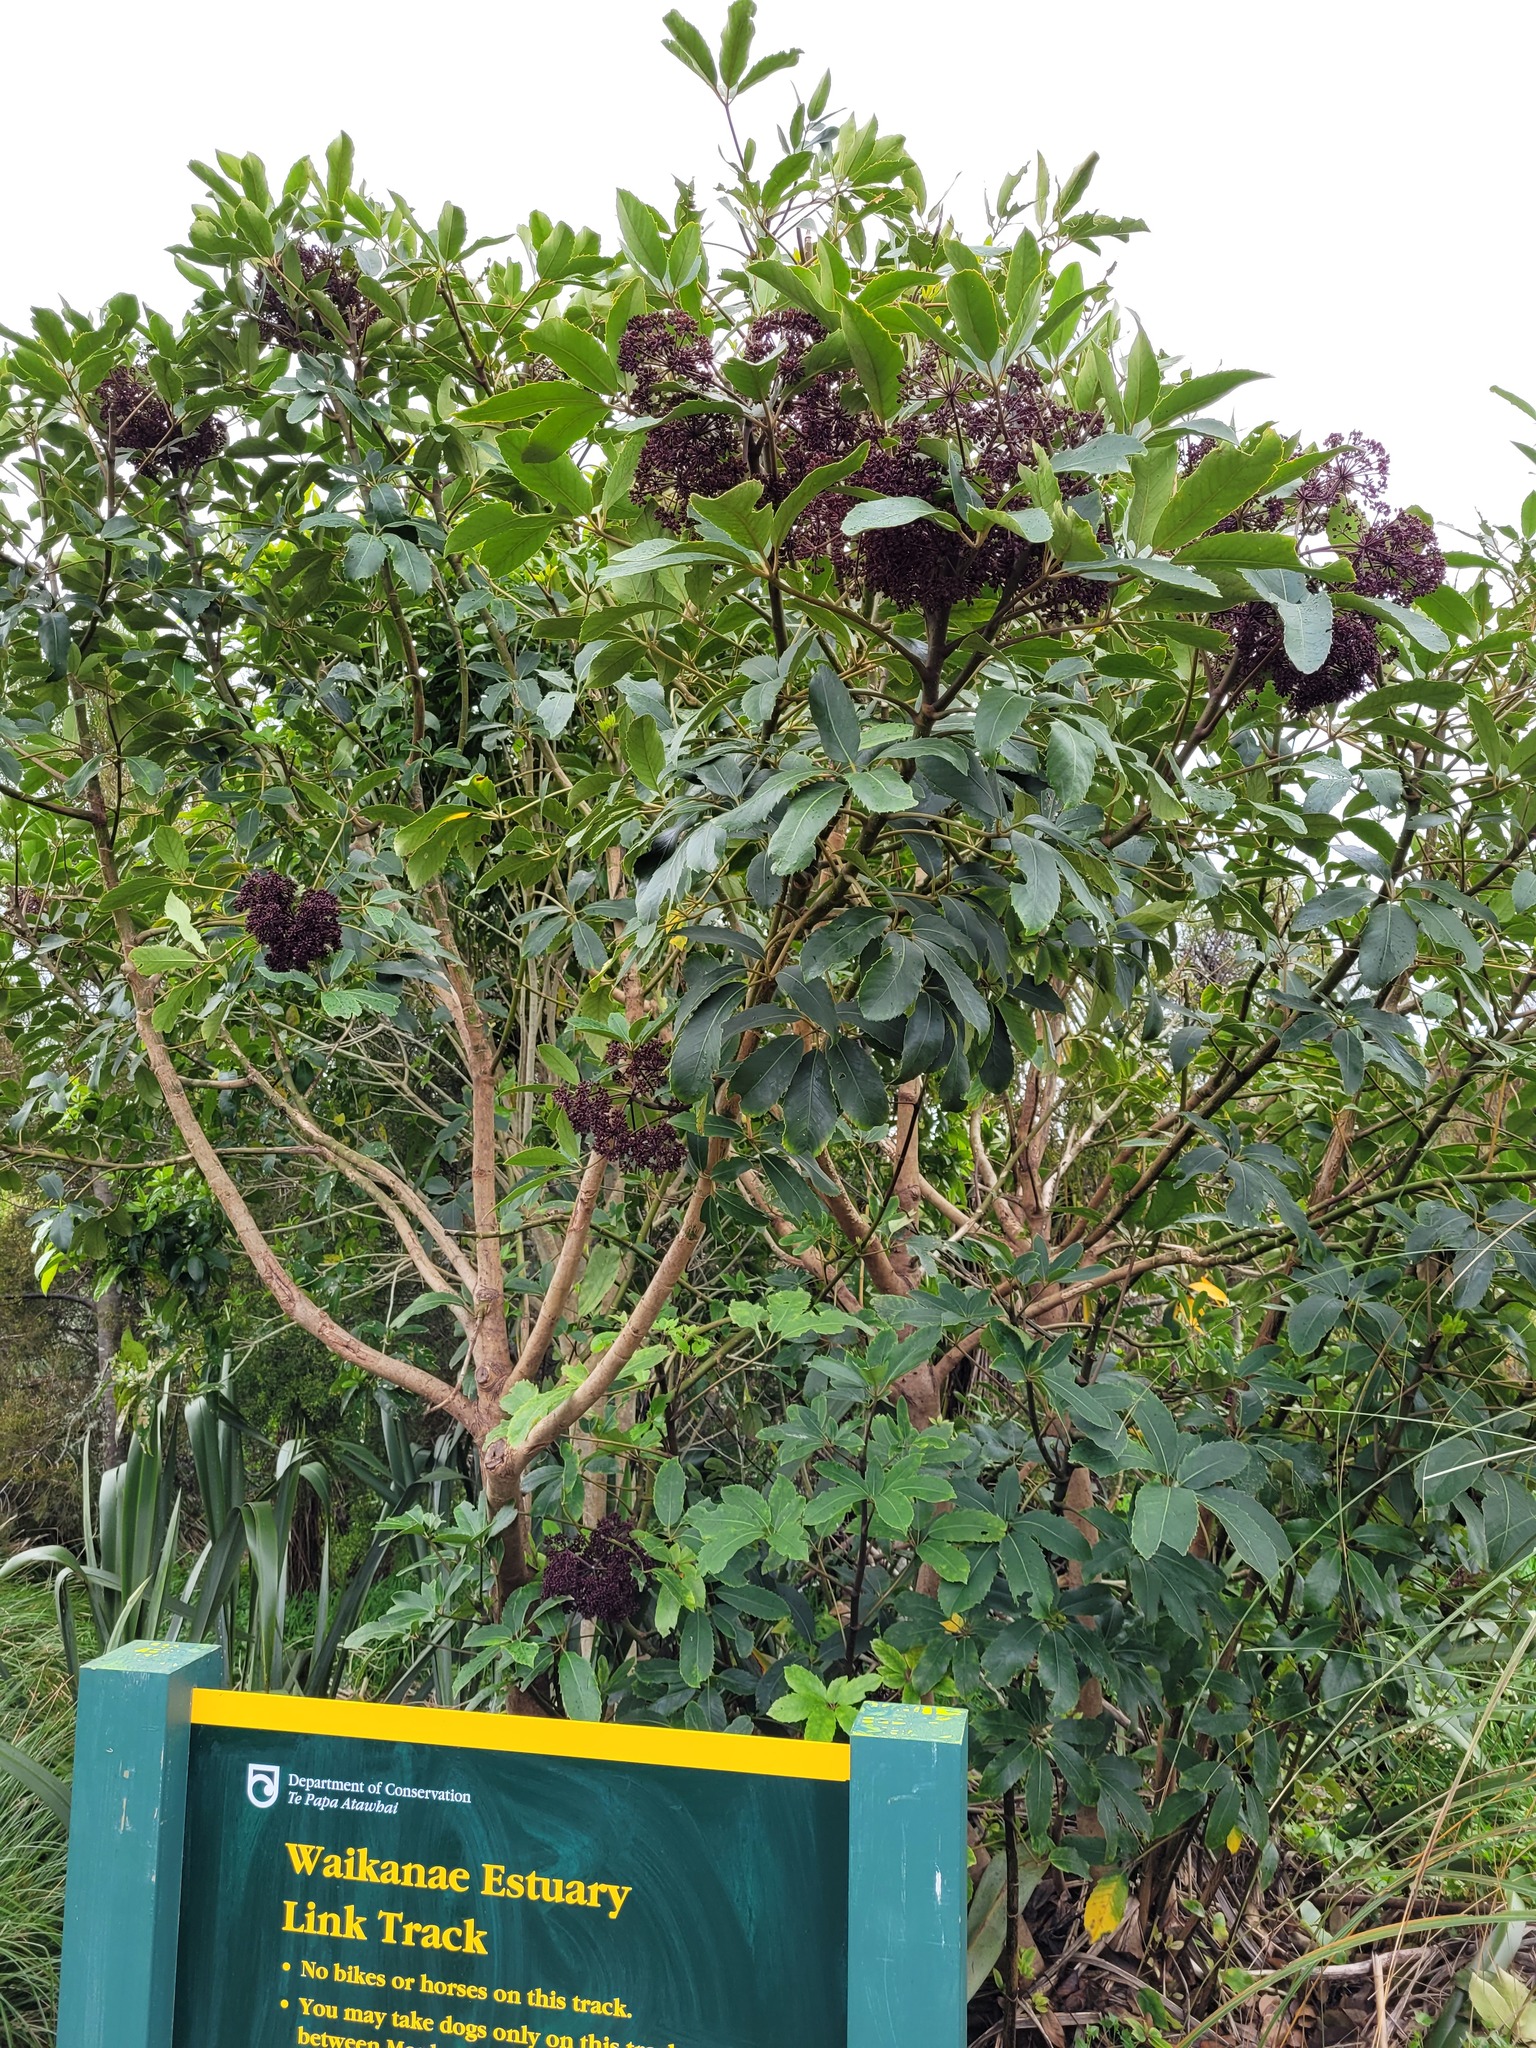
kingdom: Plantae
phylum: Tracheophyta
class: Magnoliopsida
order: Apiales
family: Araliaceae
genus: Neopanax
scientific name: Neopanax arboreus
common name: Five-fingers
